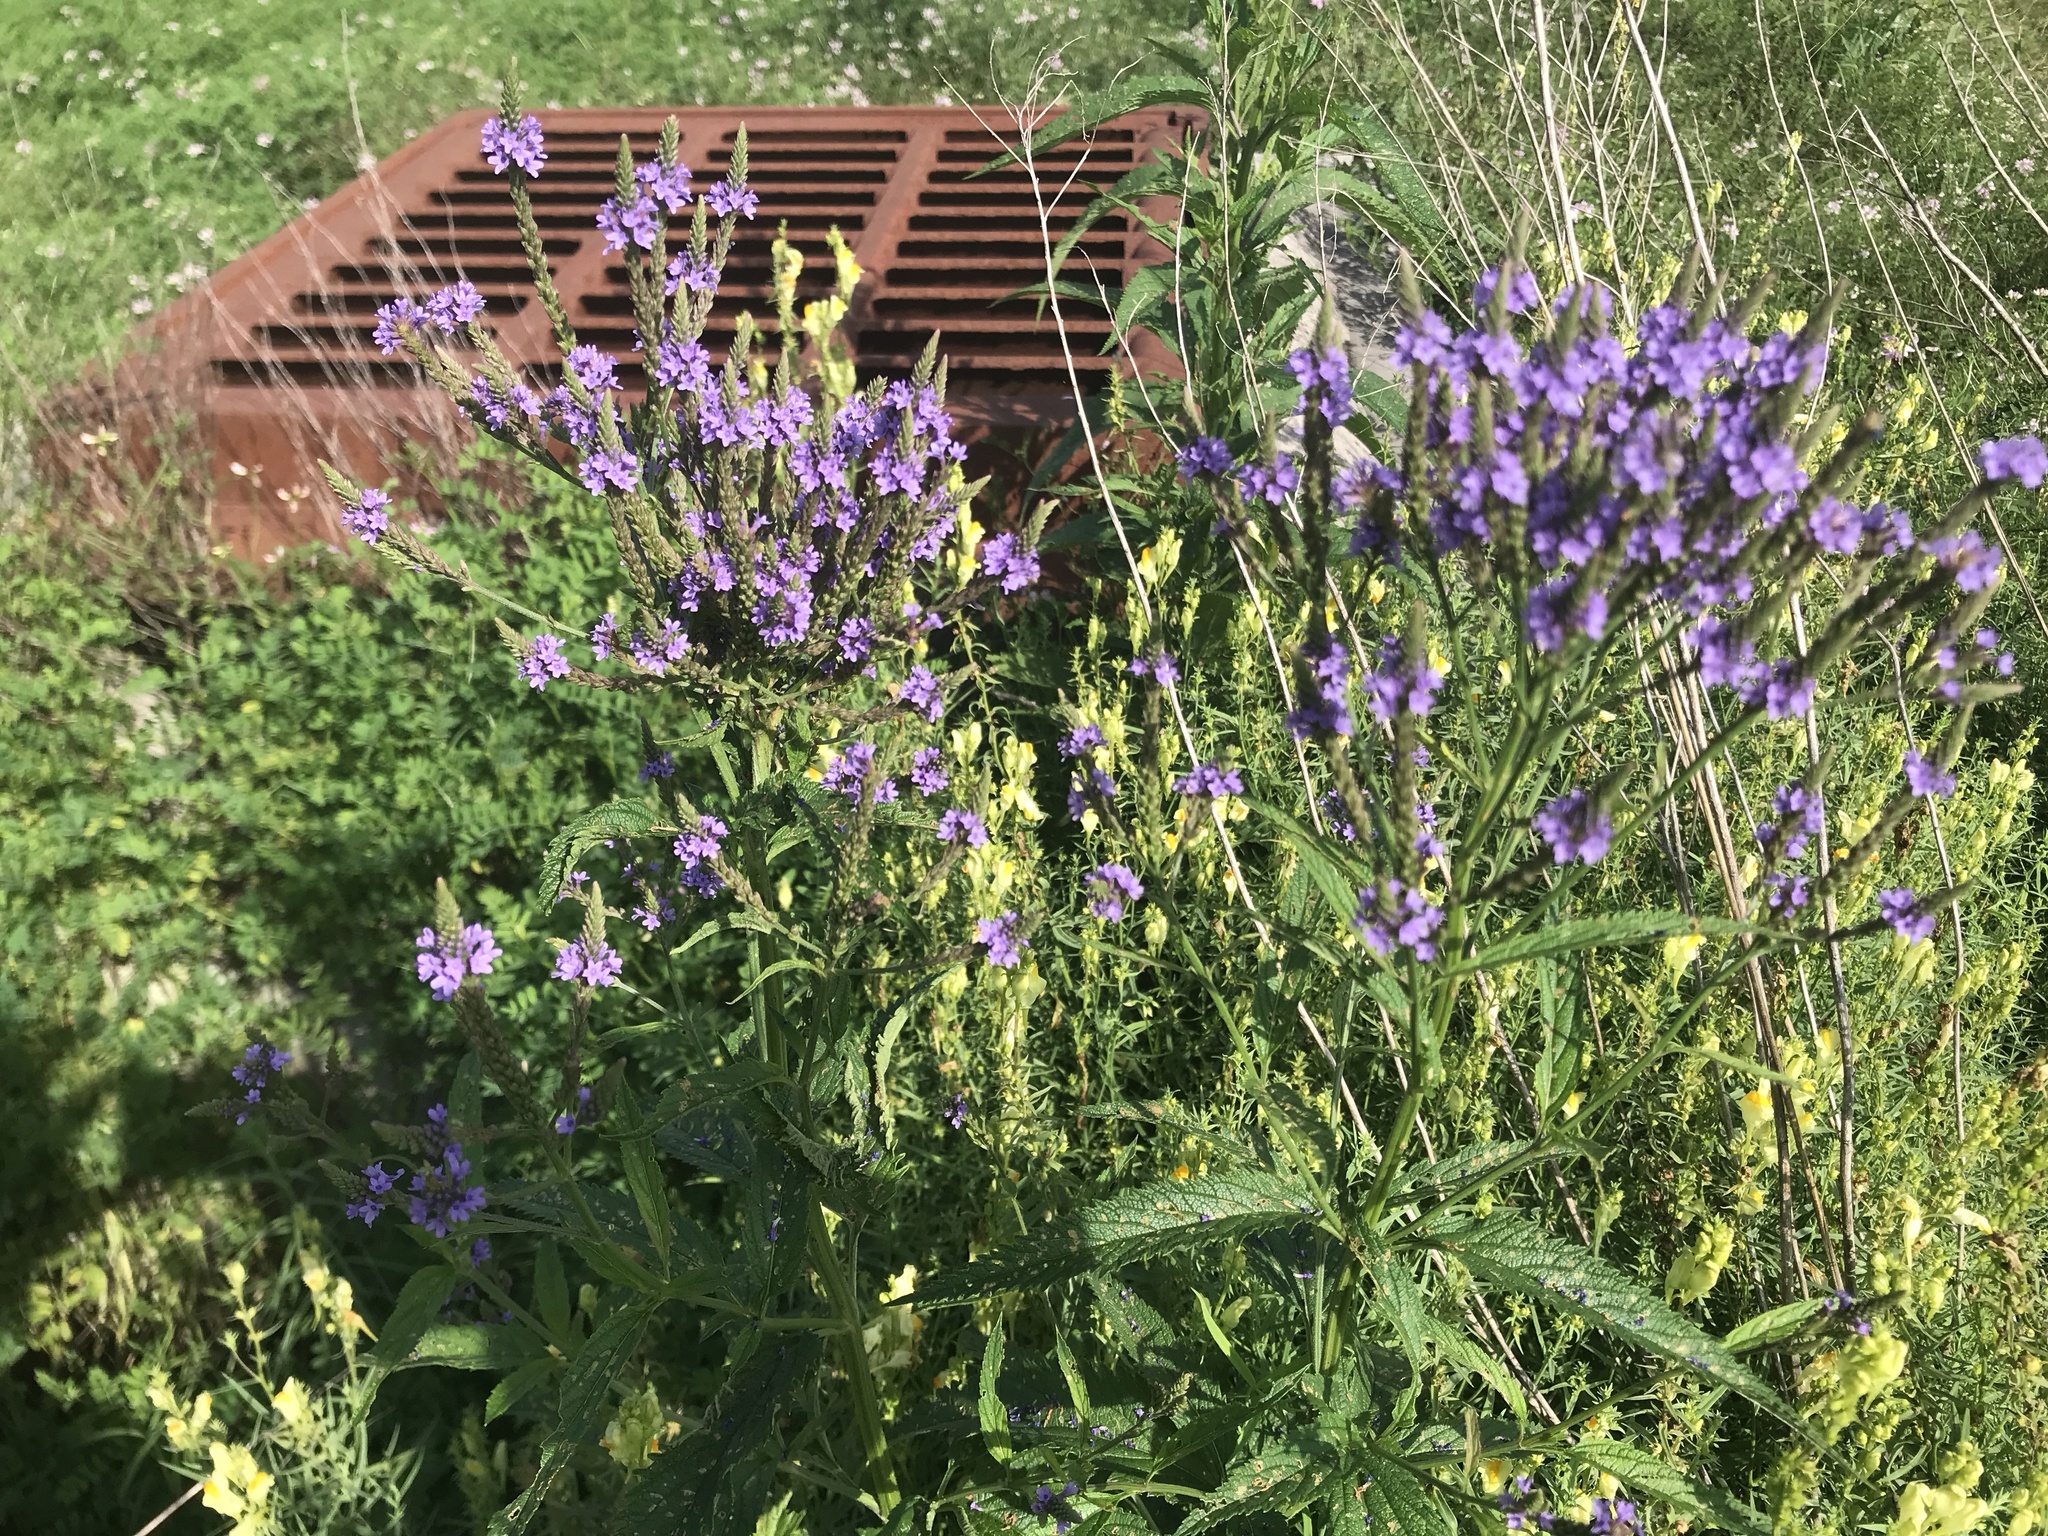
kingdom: Plantae
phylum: Tracheophyta
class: Magnoliopsida
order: Lamiales
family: Verbenaceae
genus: Verbena
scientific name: Verbena hastata
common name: American blue vervain
